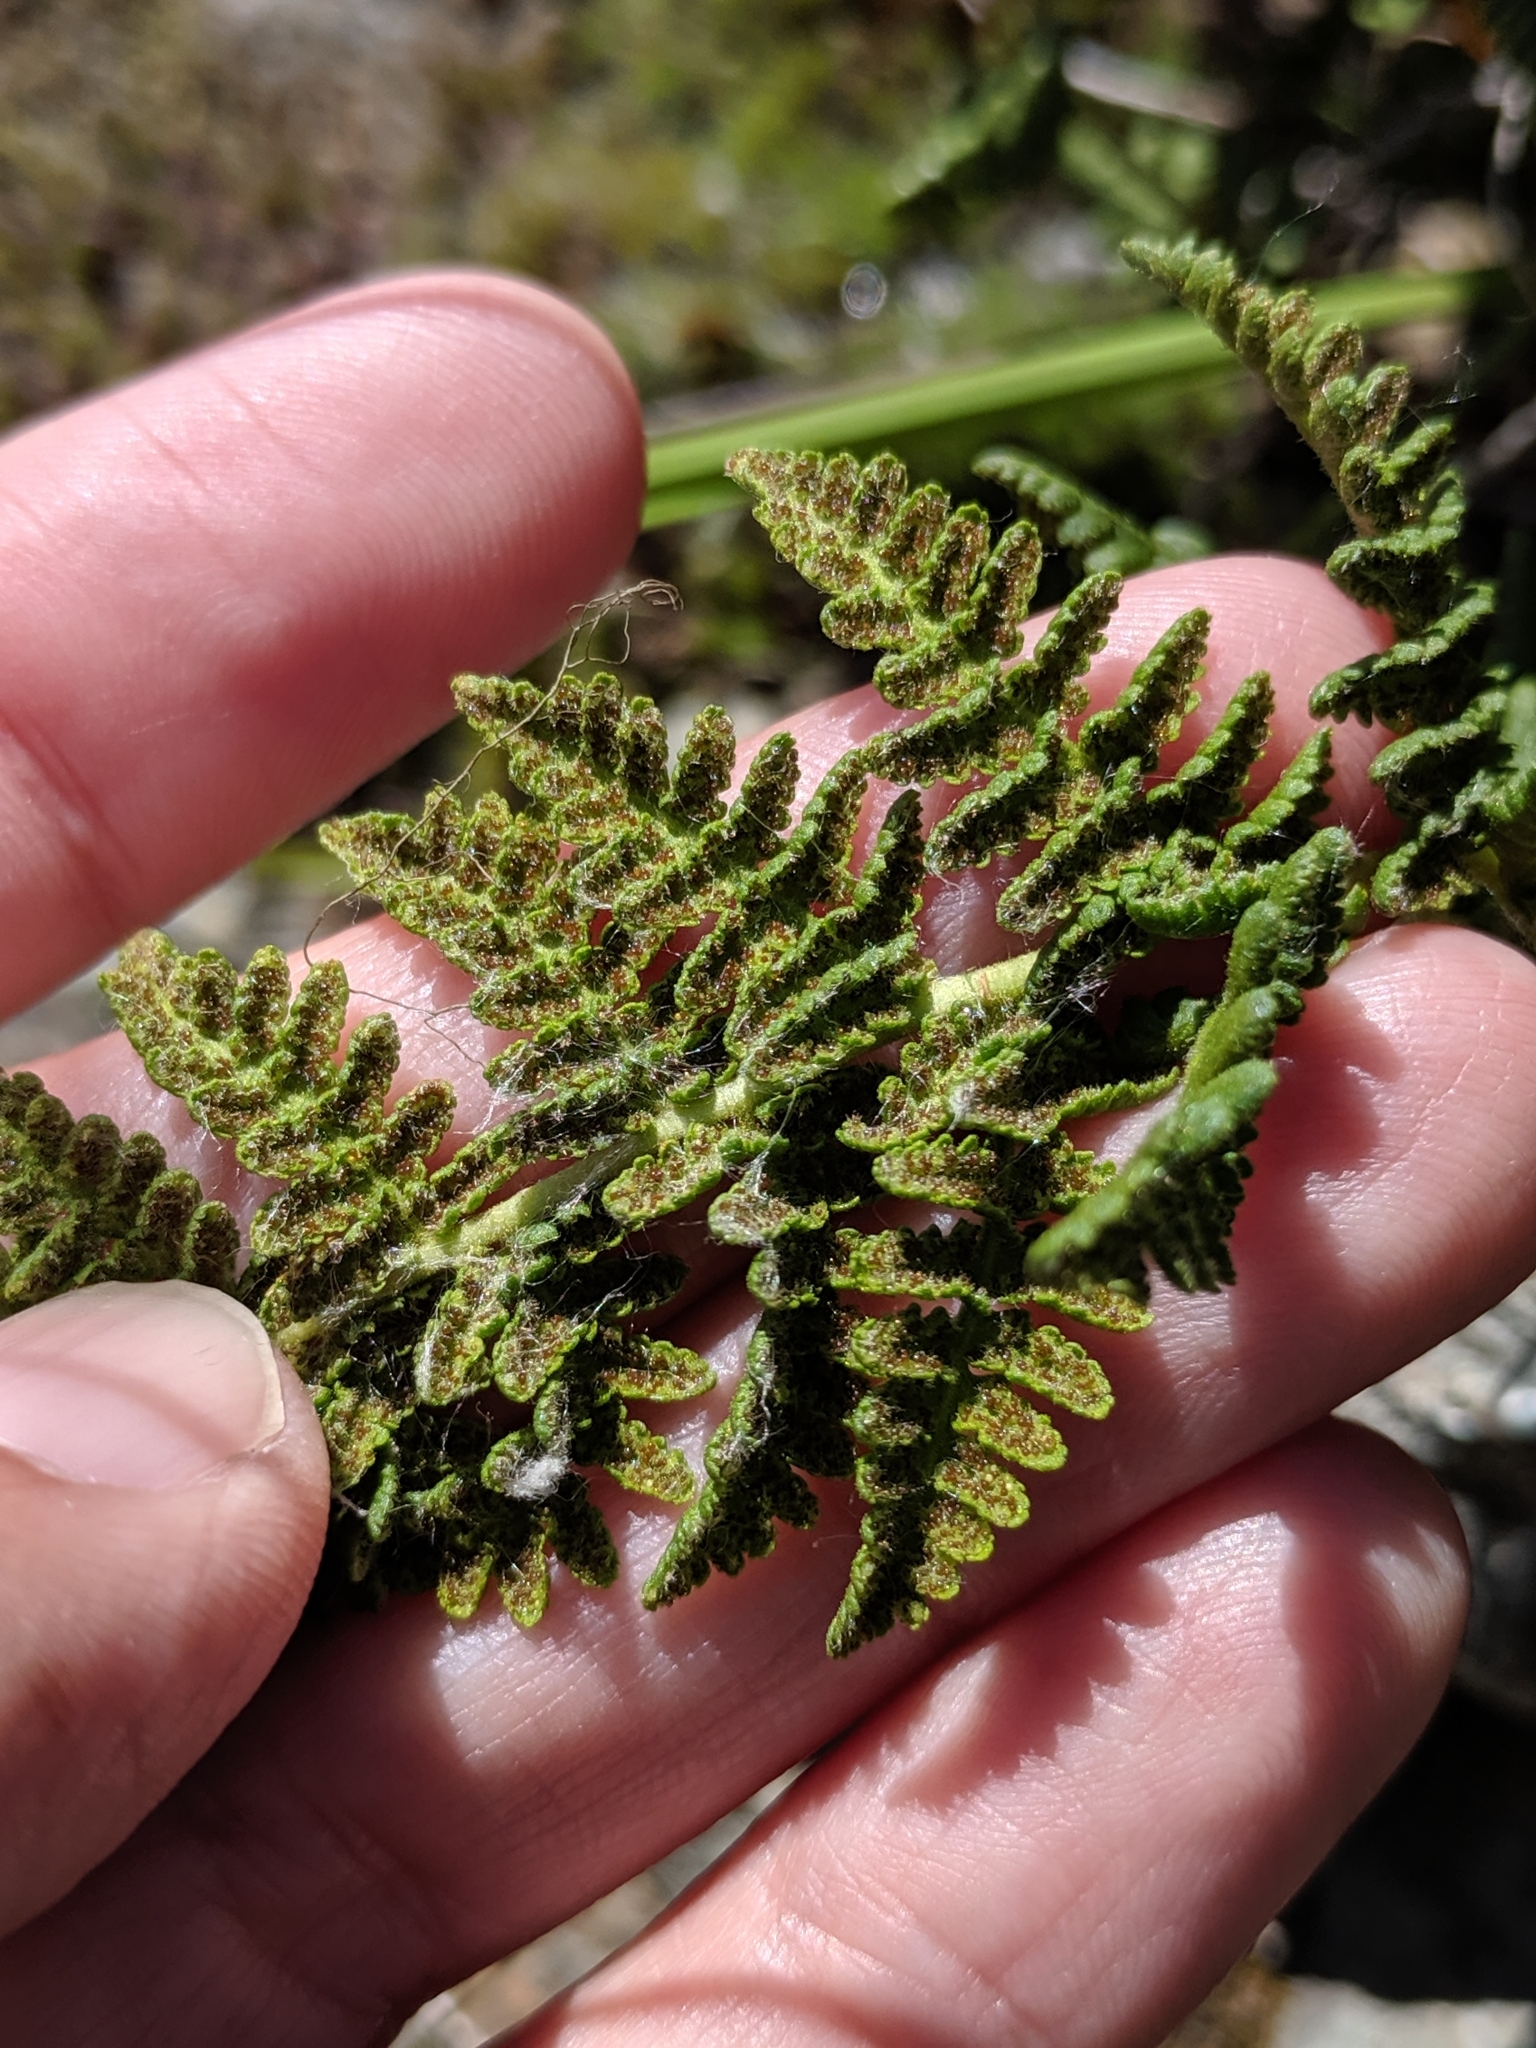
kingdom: Plantae
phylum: Tracheophyta
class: Polypodiopsida
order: Polypodiales
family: Woodsiaceae
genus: Physematium
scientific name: Physematium scopulinum
